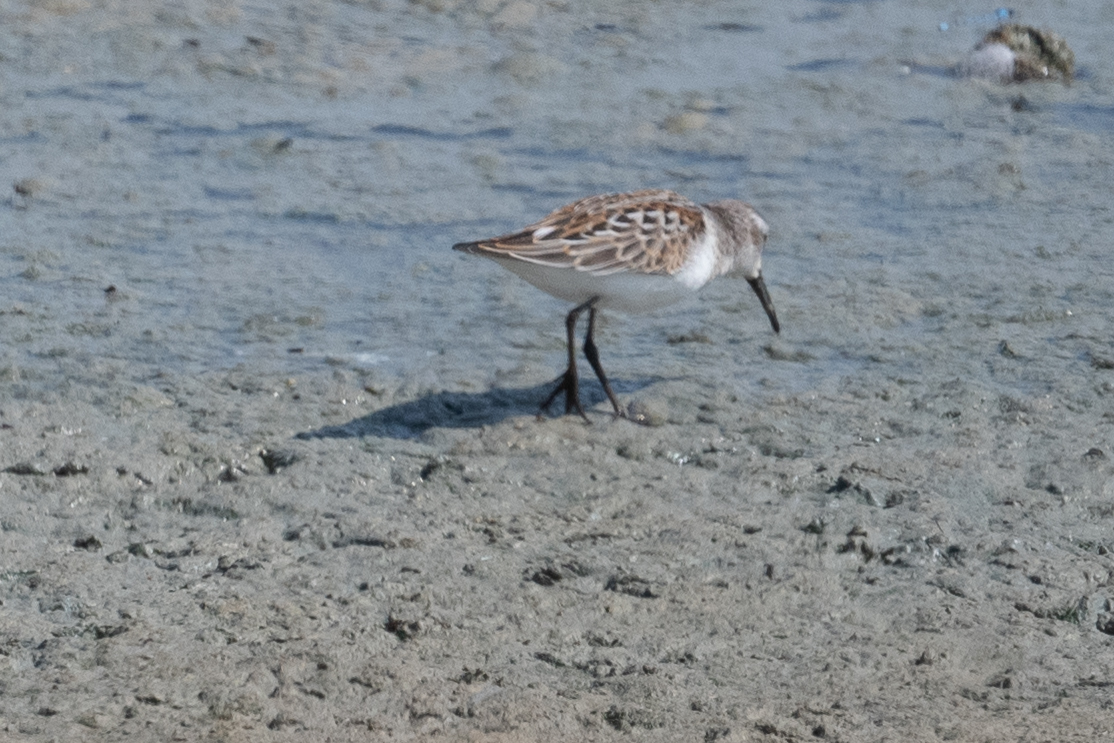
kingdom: Animalia
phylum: Chordata
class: Aves
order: Charadriiformes
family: Scolopacidae
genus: Calidris
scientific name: Calidris mauri
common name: Western sandpiper
